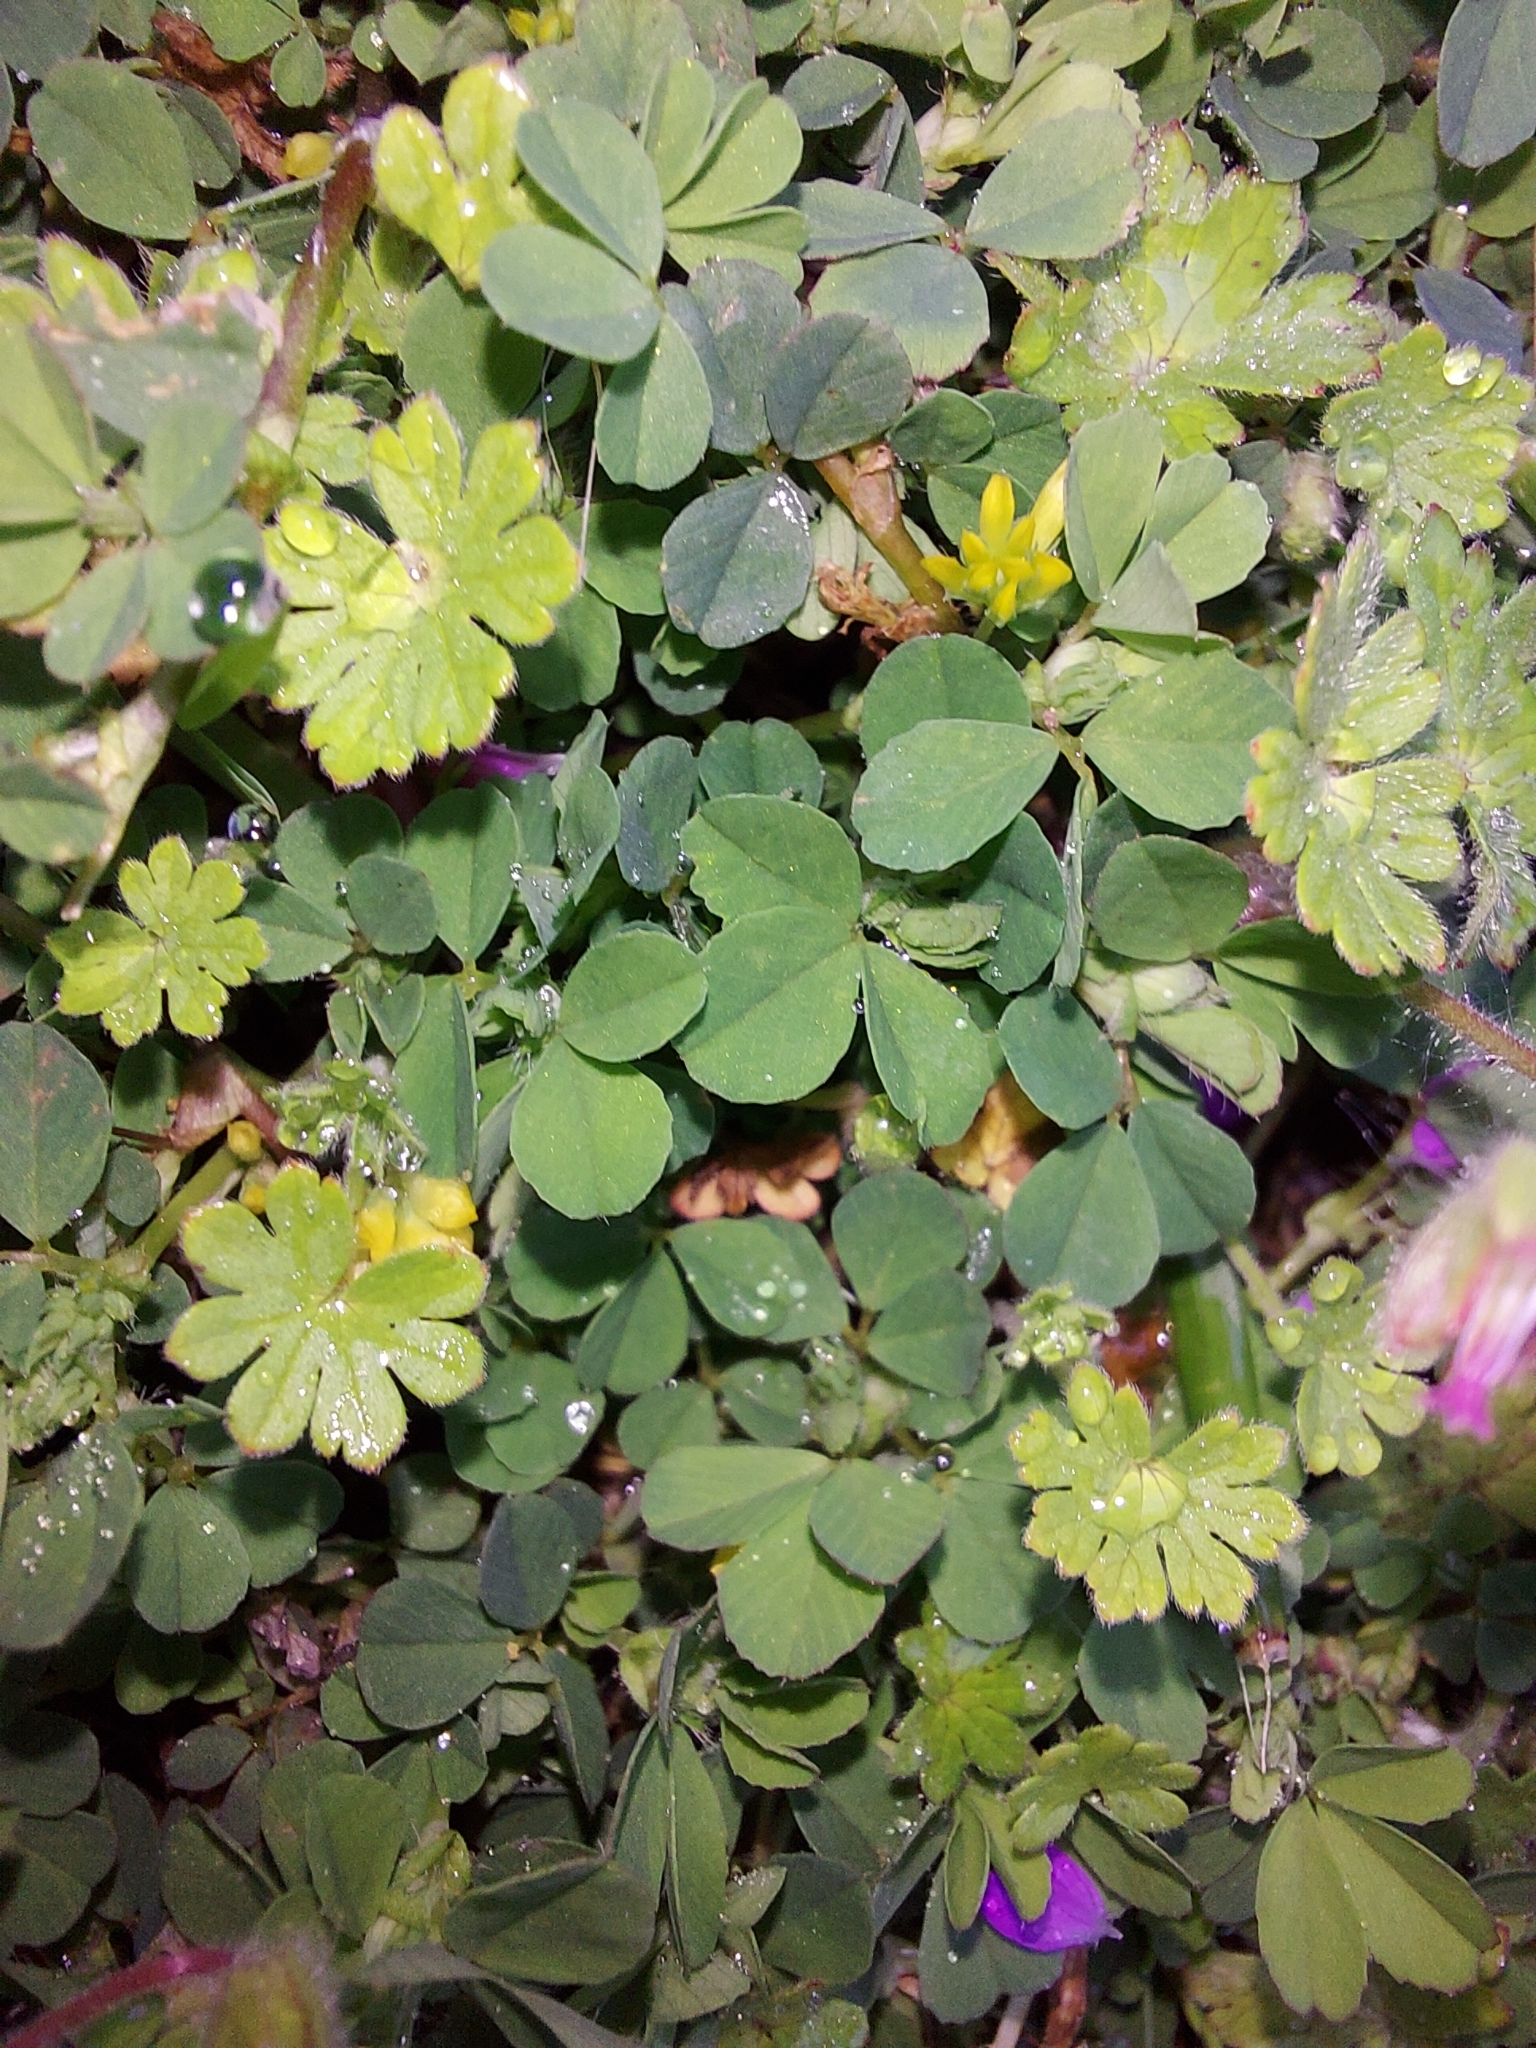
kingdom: Plantae
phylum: Tracheophyta
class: Magnoliopsida
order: Fabales
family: Fabaceae
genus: Trifolium
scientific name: Trifolium dubium
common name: Suckling clover
